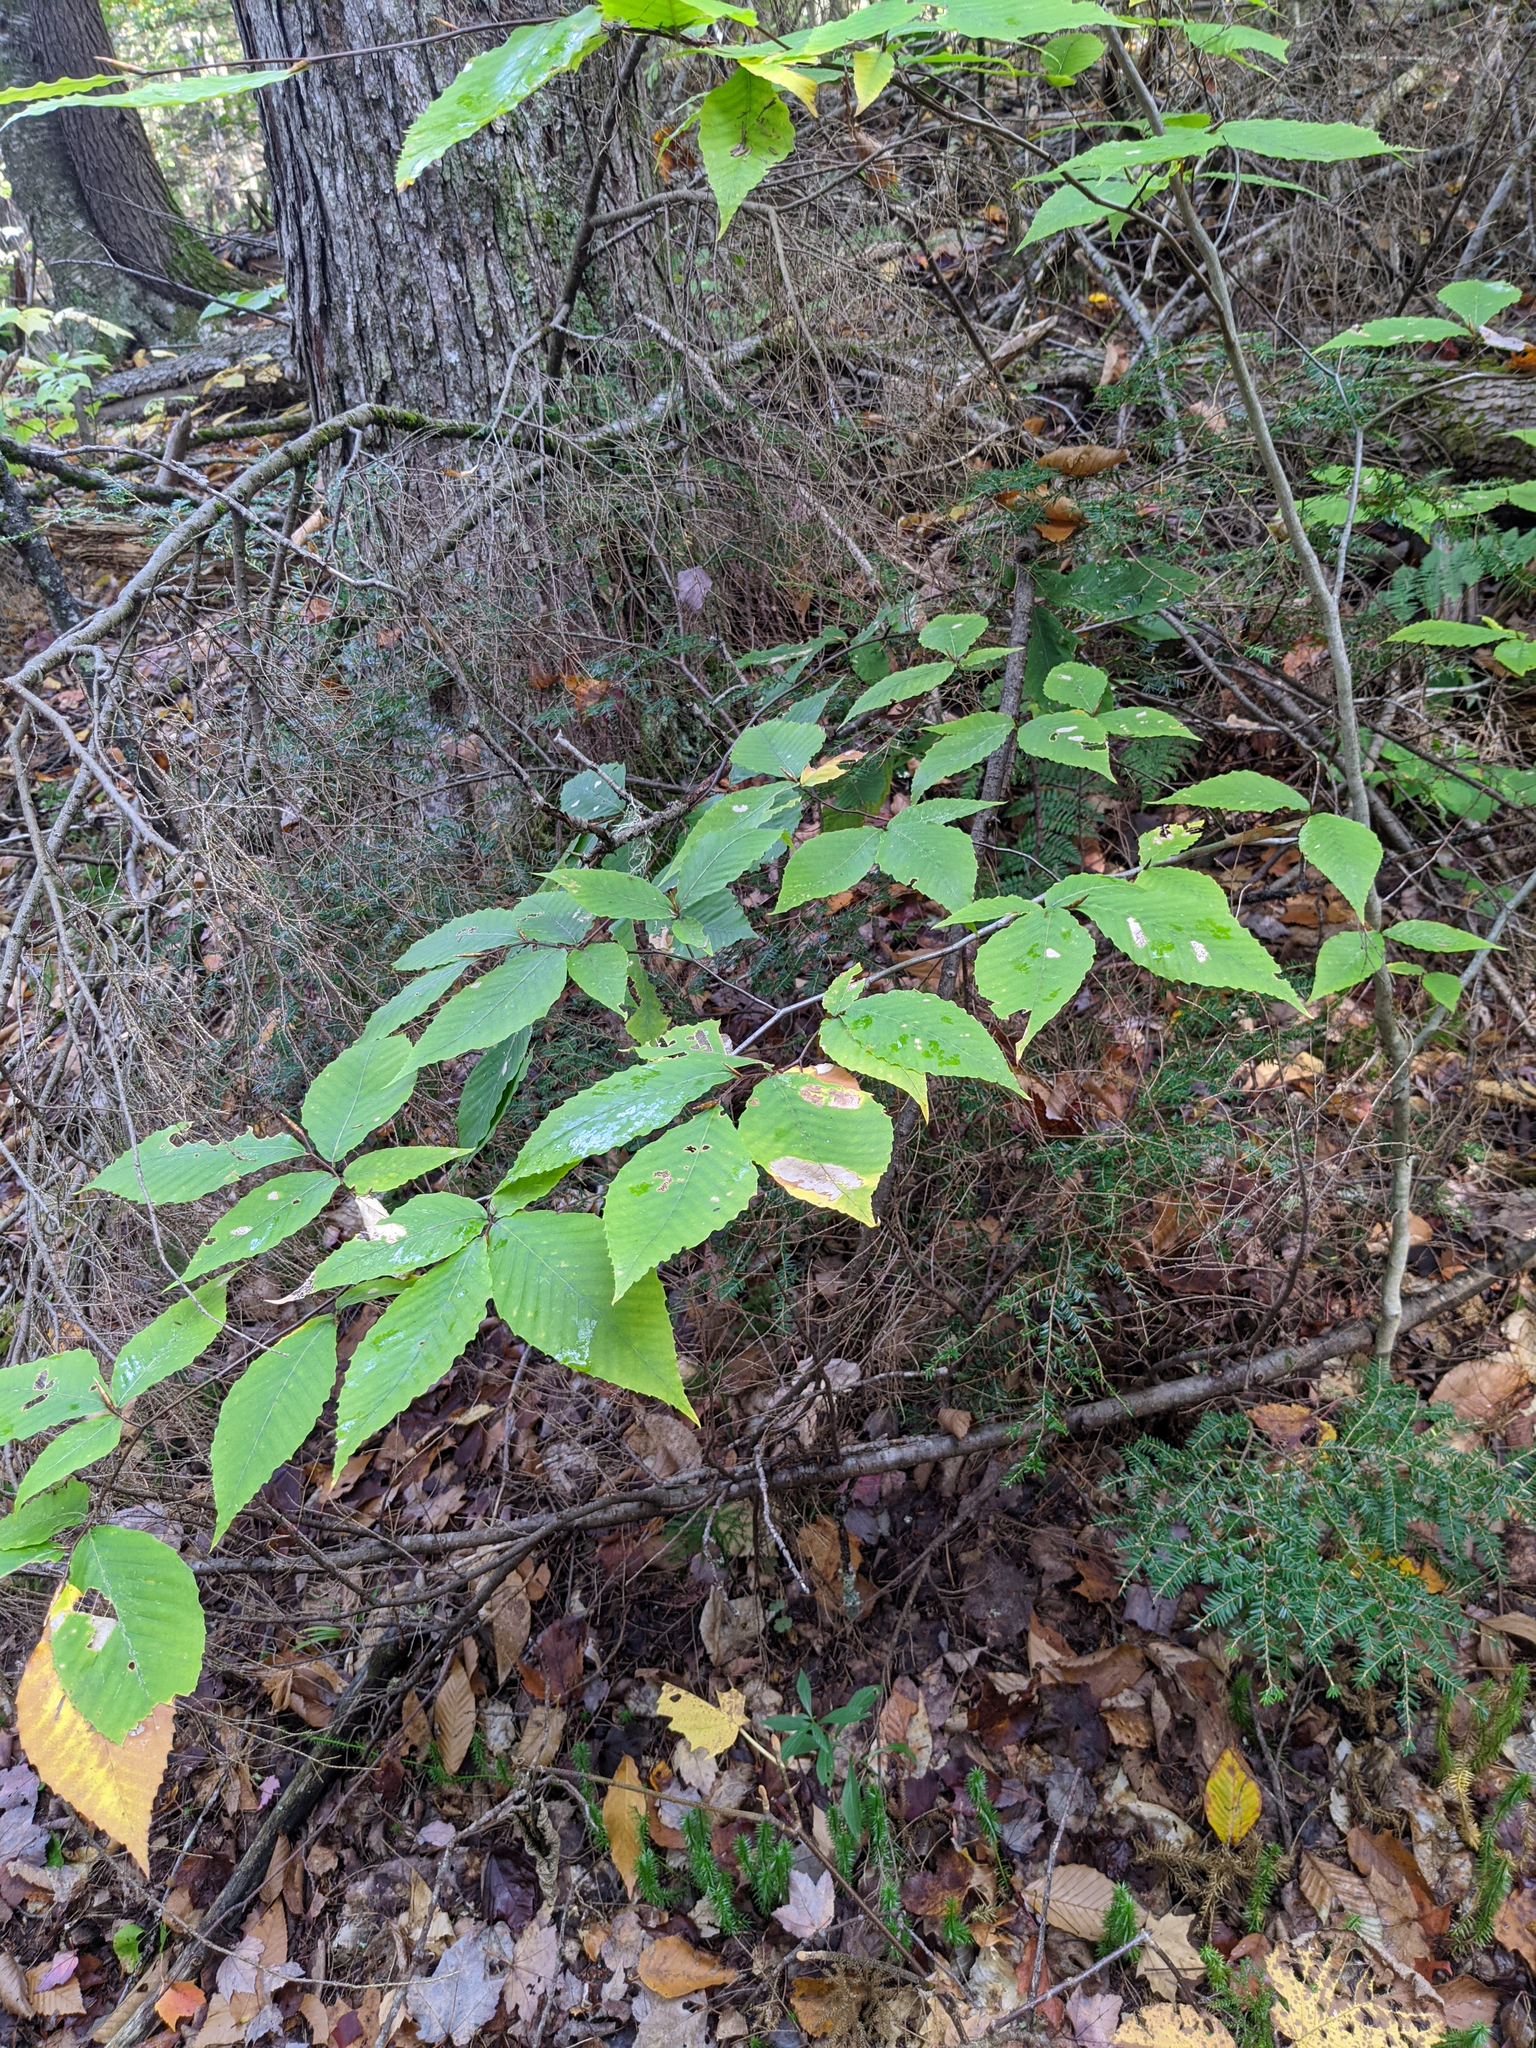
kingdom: Plantae
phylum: Tracheophyta
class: Magnoliopsida
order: Fagales
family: Fagaceae
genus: Fagus
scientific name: Fagus grandifolia
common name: American beech
